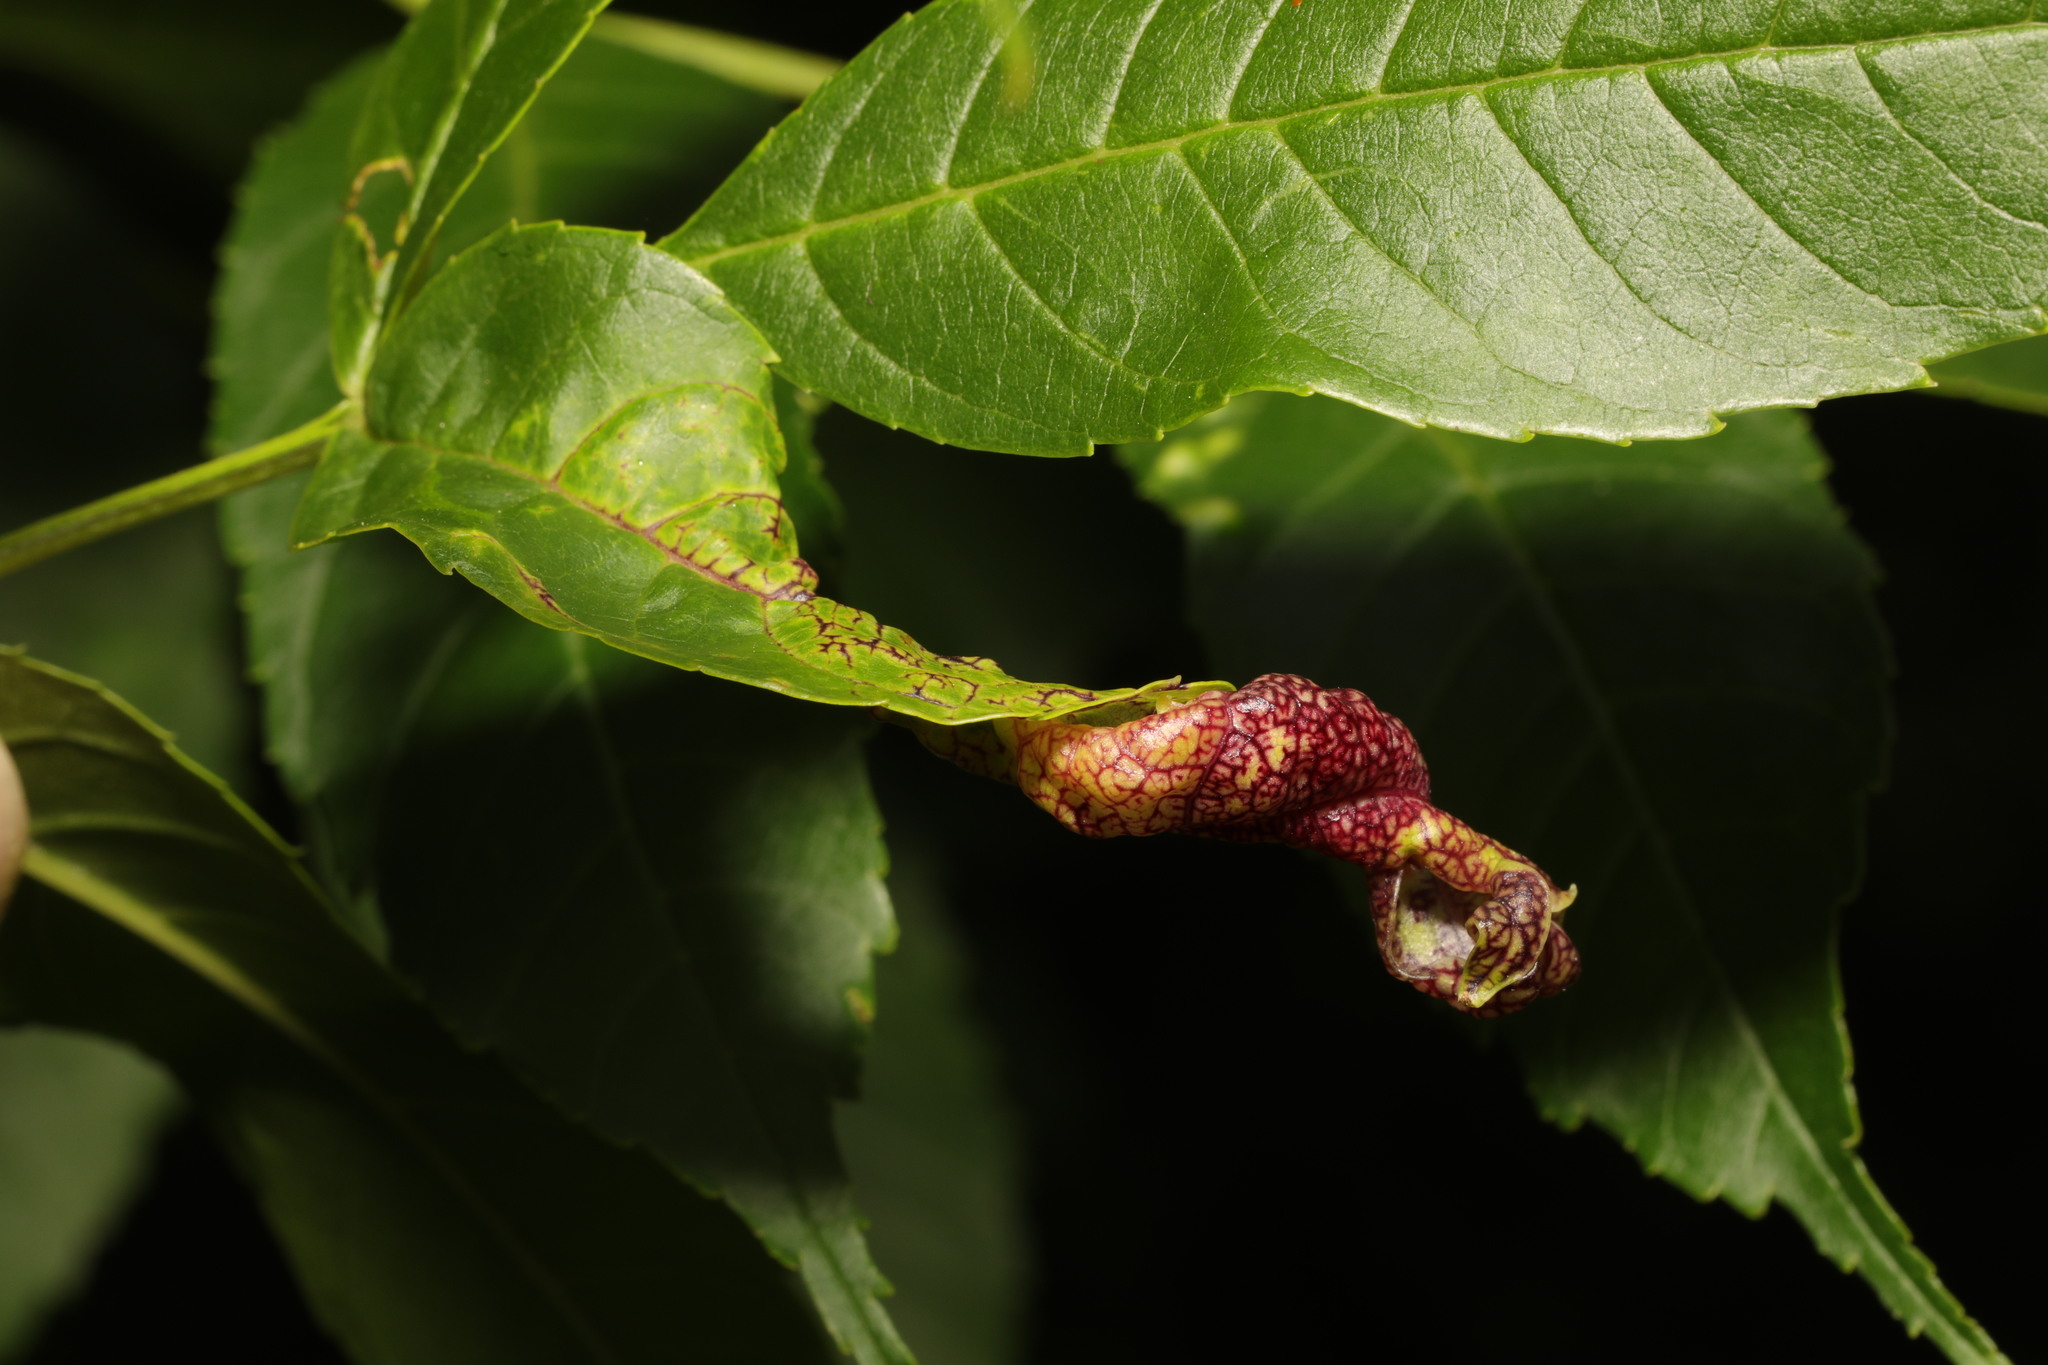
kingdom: Animalia
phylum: Arthropoda
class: Insecta
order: Hemiptera
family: Liviidae
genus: Psyllopsis
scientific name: Psyllopsis fraxini
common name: Jumping plant louse
